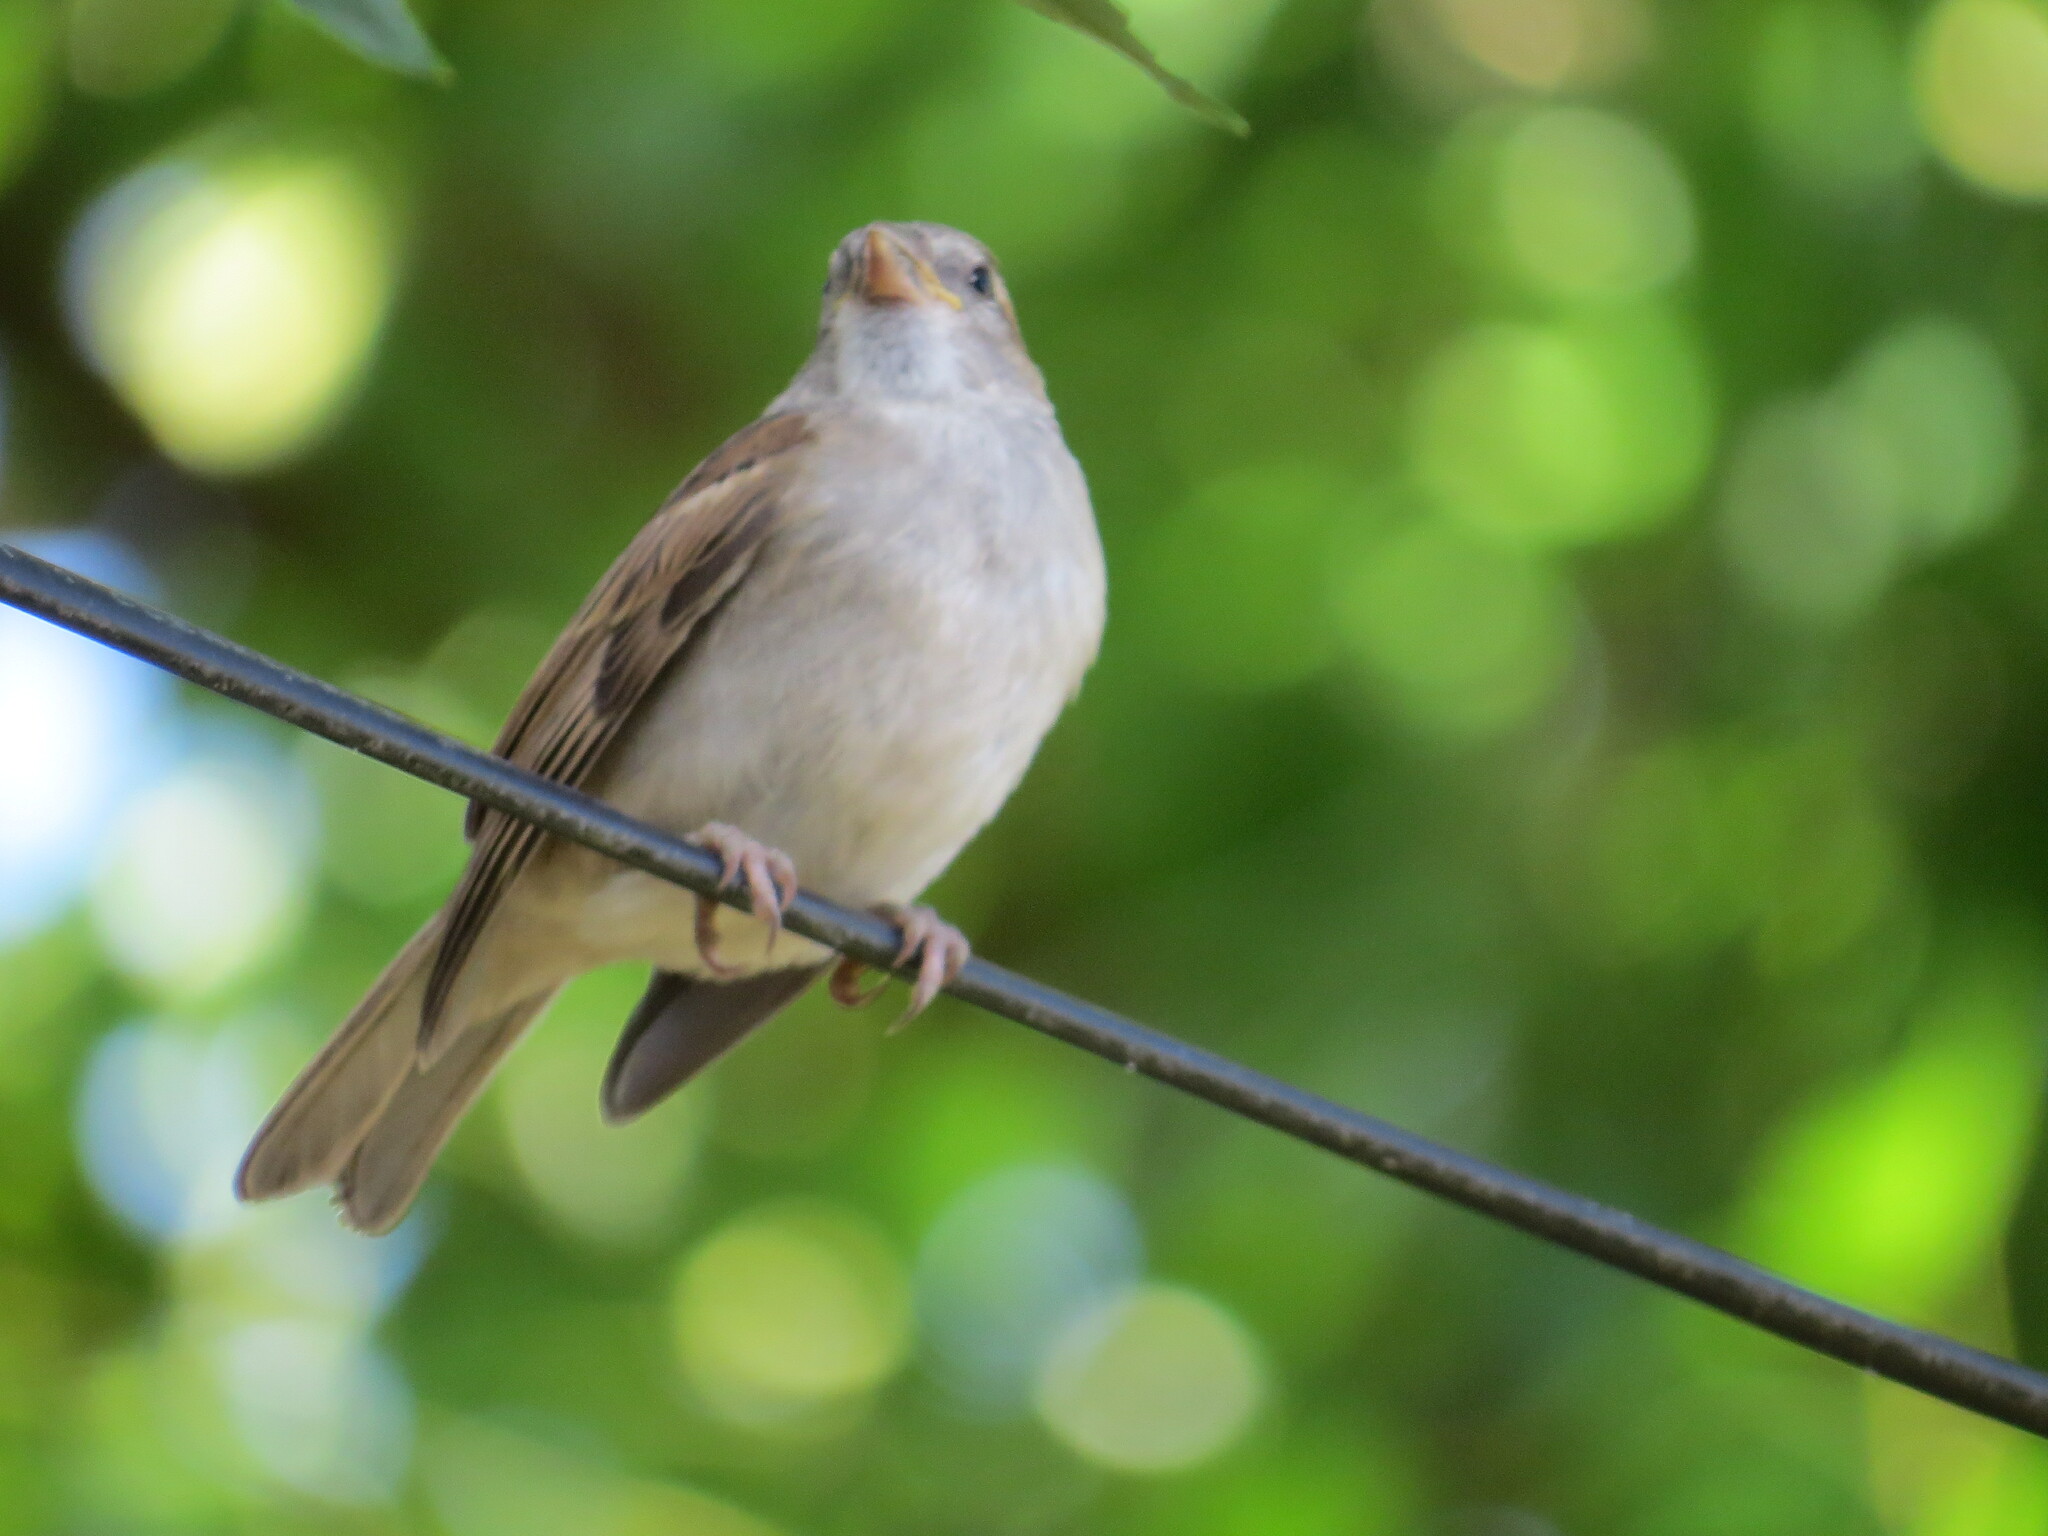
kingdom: Animalia
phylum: Chordata
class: Aves
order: Passeriformes
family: Passeridae
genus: Passer
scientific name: Passer domesticus
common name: House sparrow
